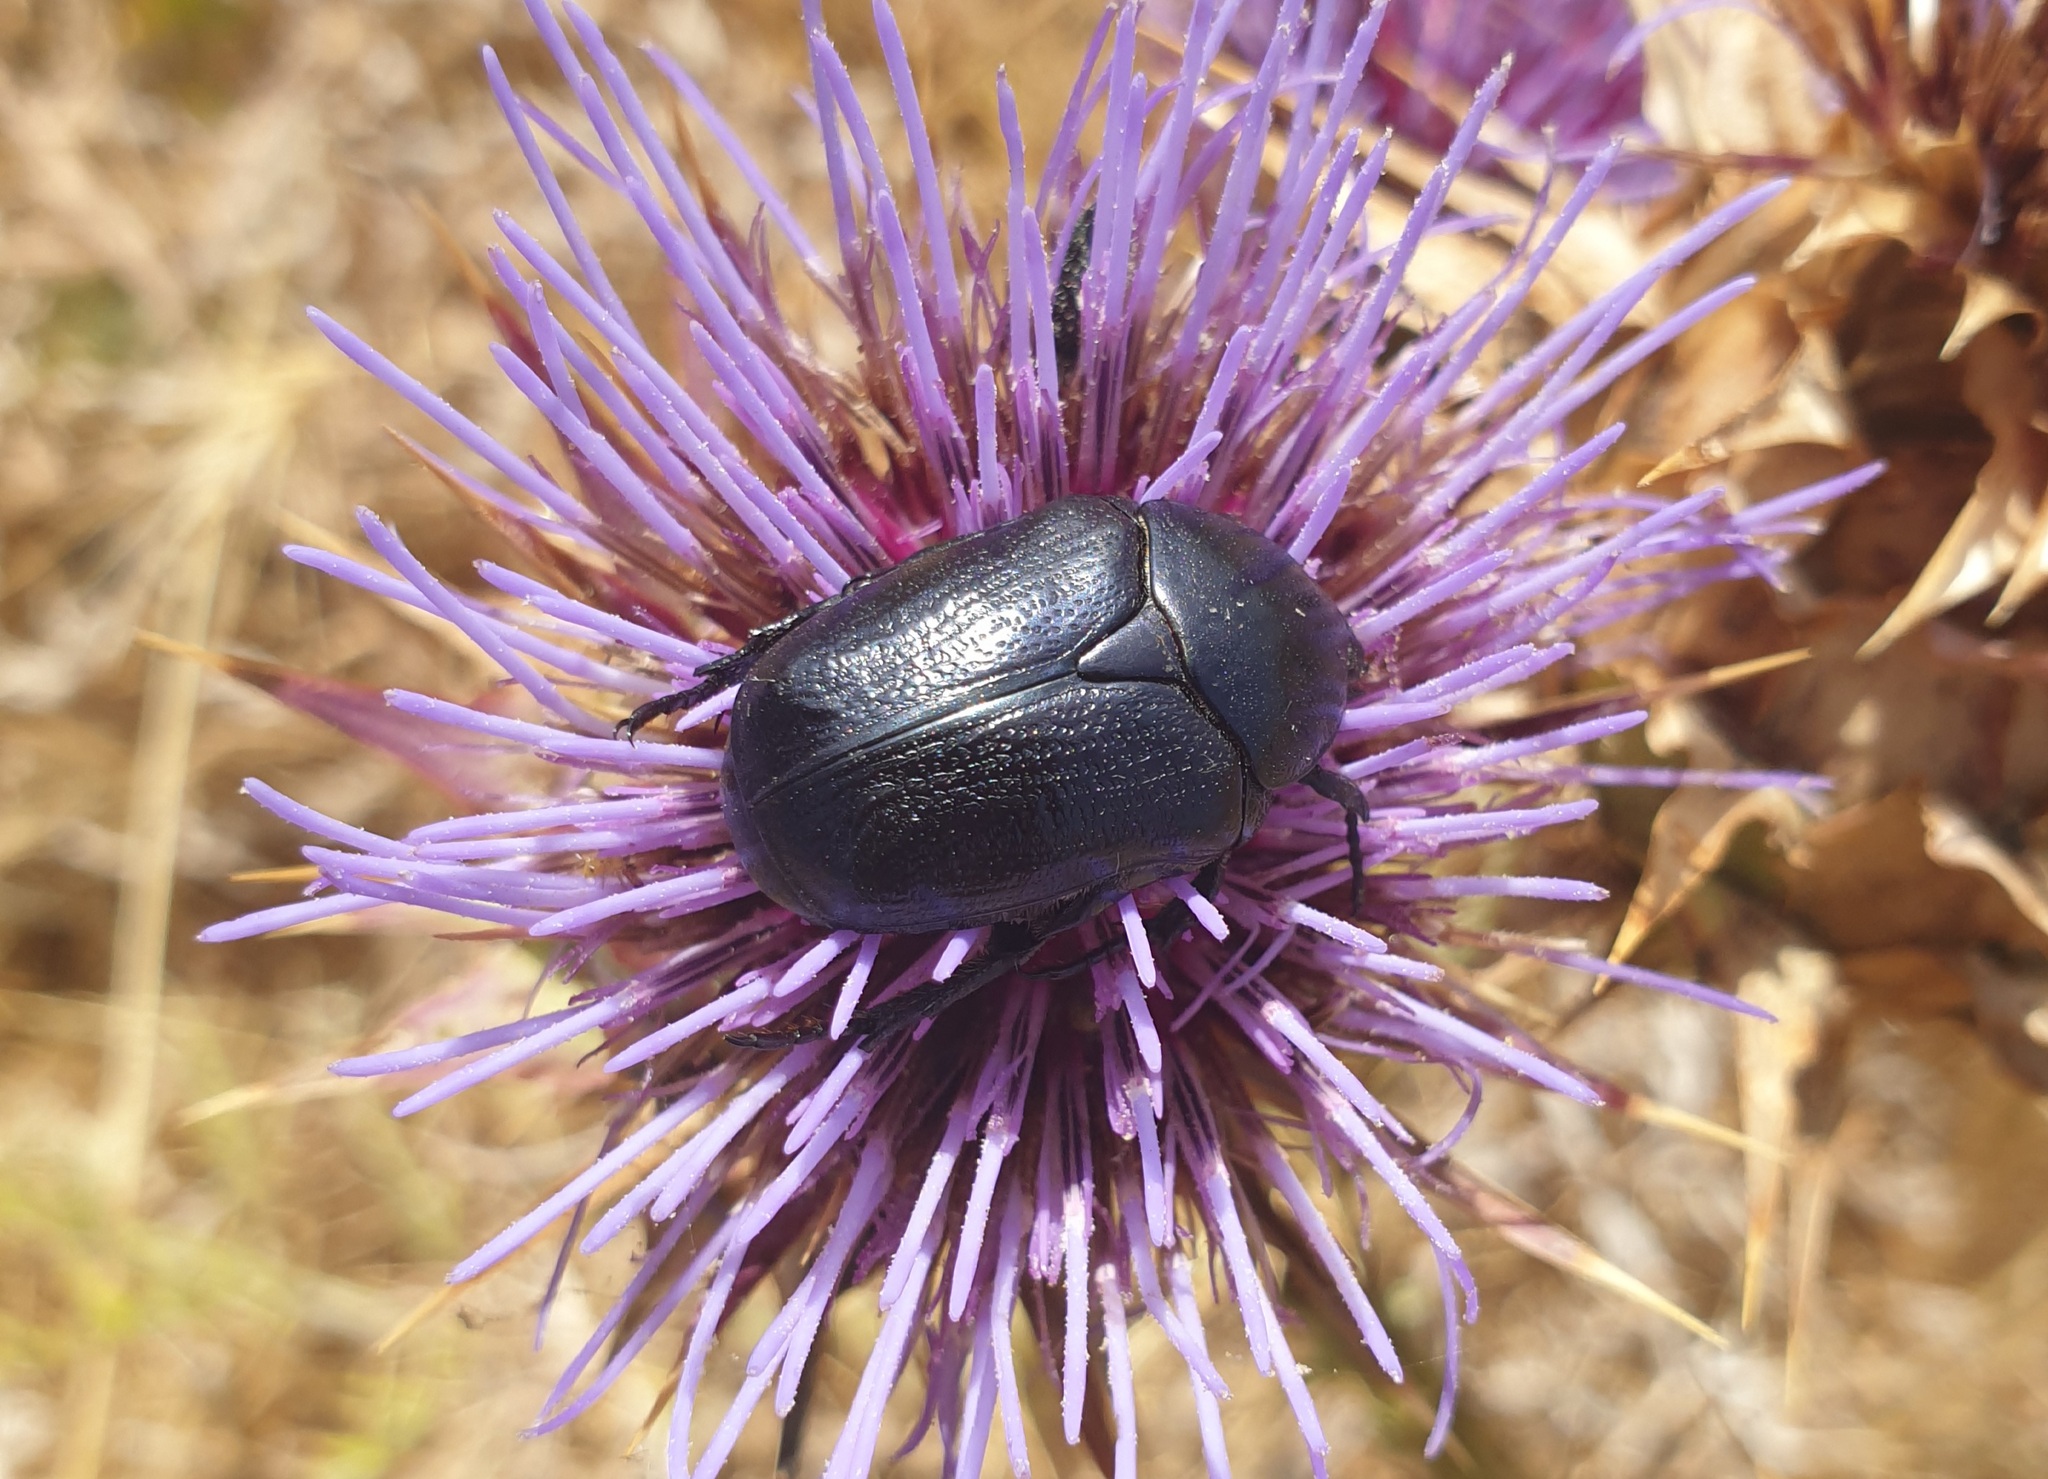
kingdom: Animalia
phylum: Arthropoda
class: Insecta
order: Coleoptera
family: Scarabaeidae
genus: Protaetia
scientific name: Protaetia sardea
